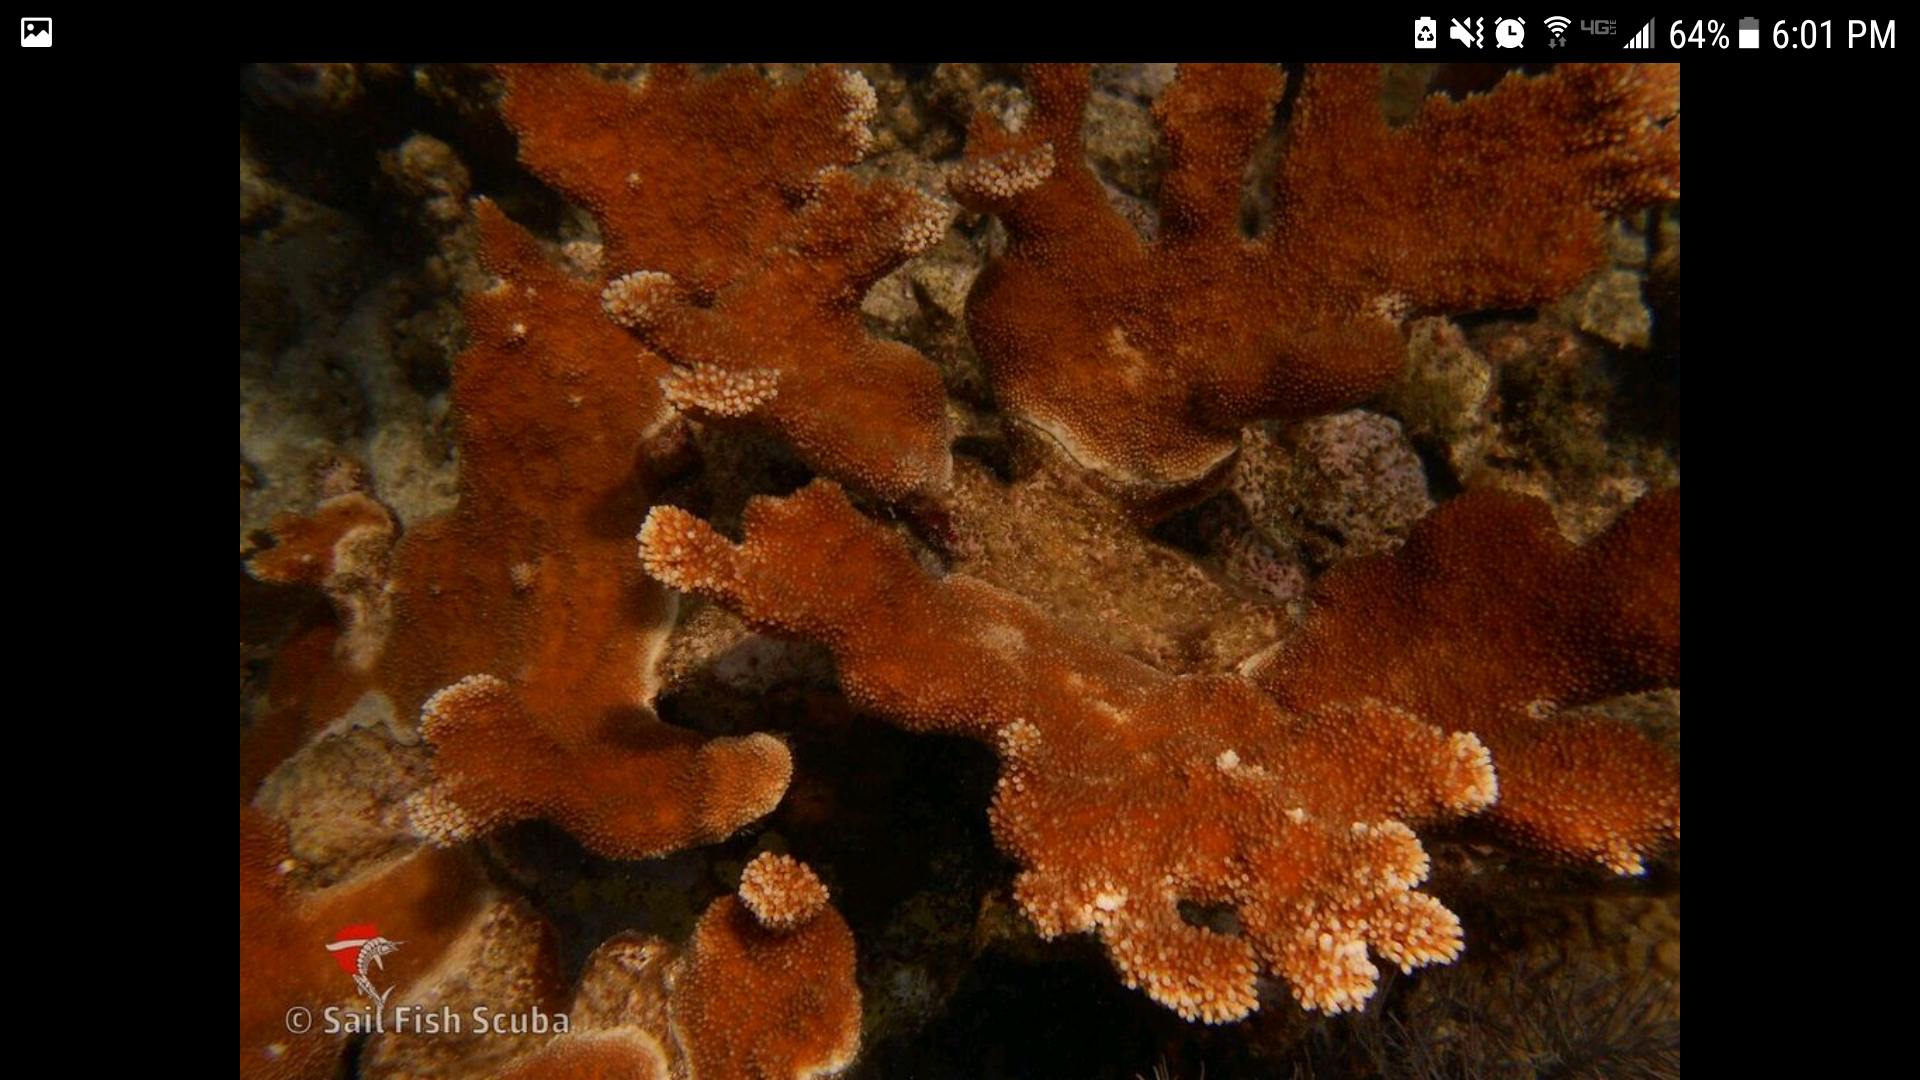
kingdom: Animalia
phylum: Cnidaria
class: Anthozoa
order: Scleractinia
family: Acroporidae
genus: Acropora
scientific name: Acropora palmata
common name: Elkhorn coral
